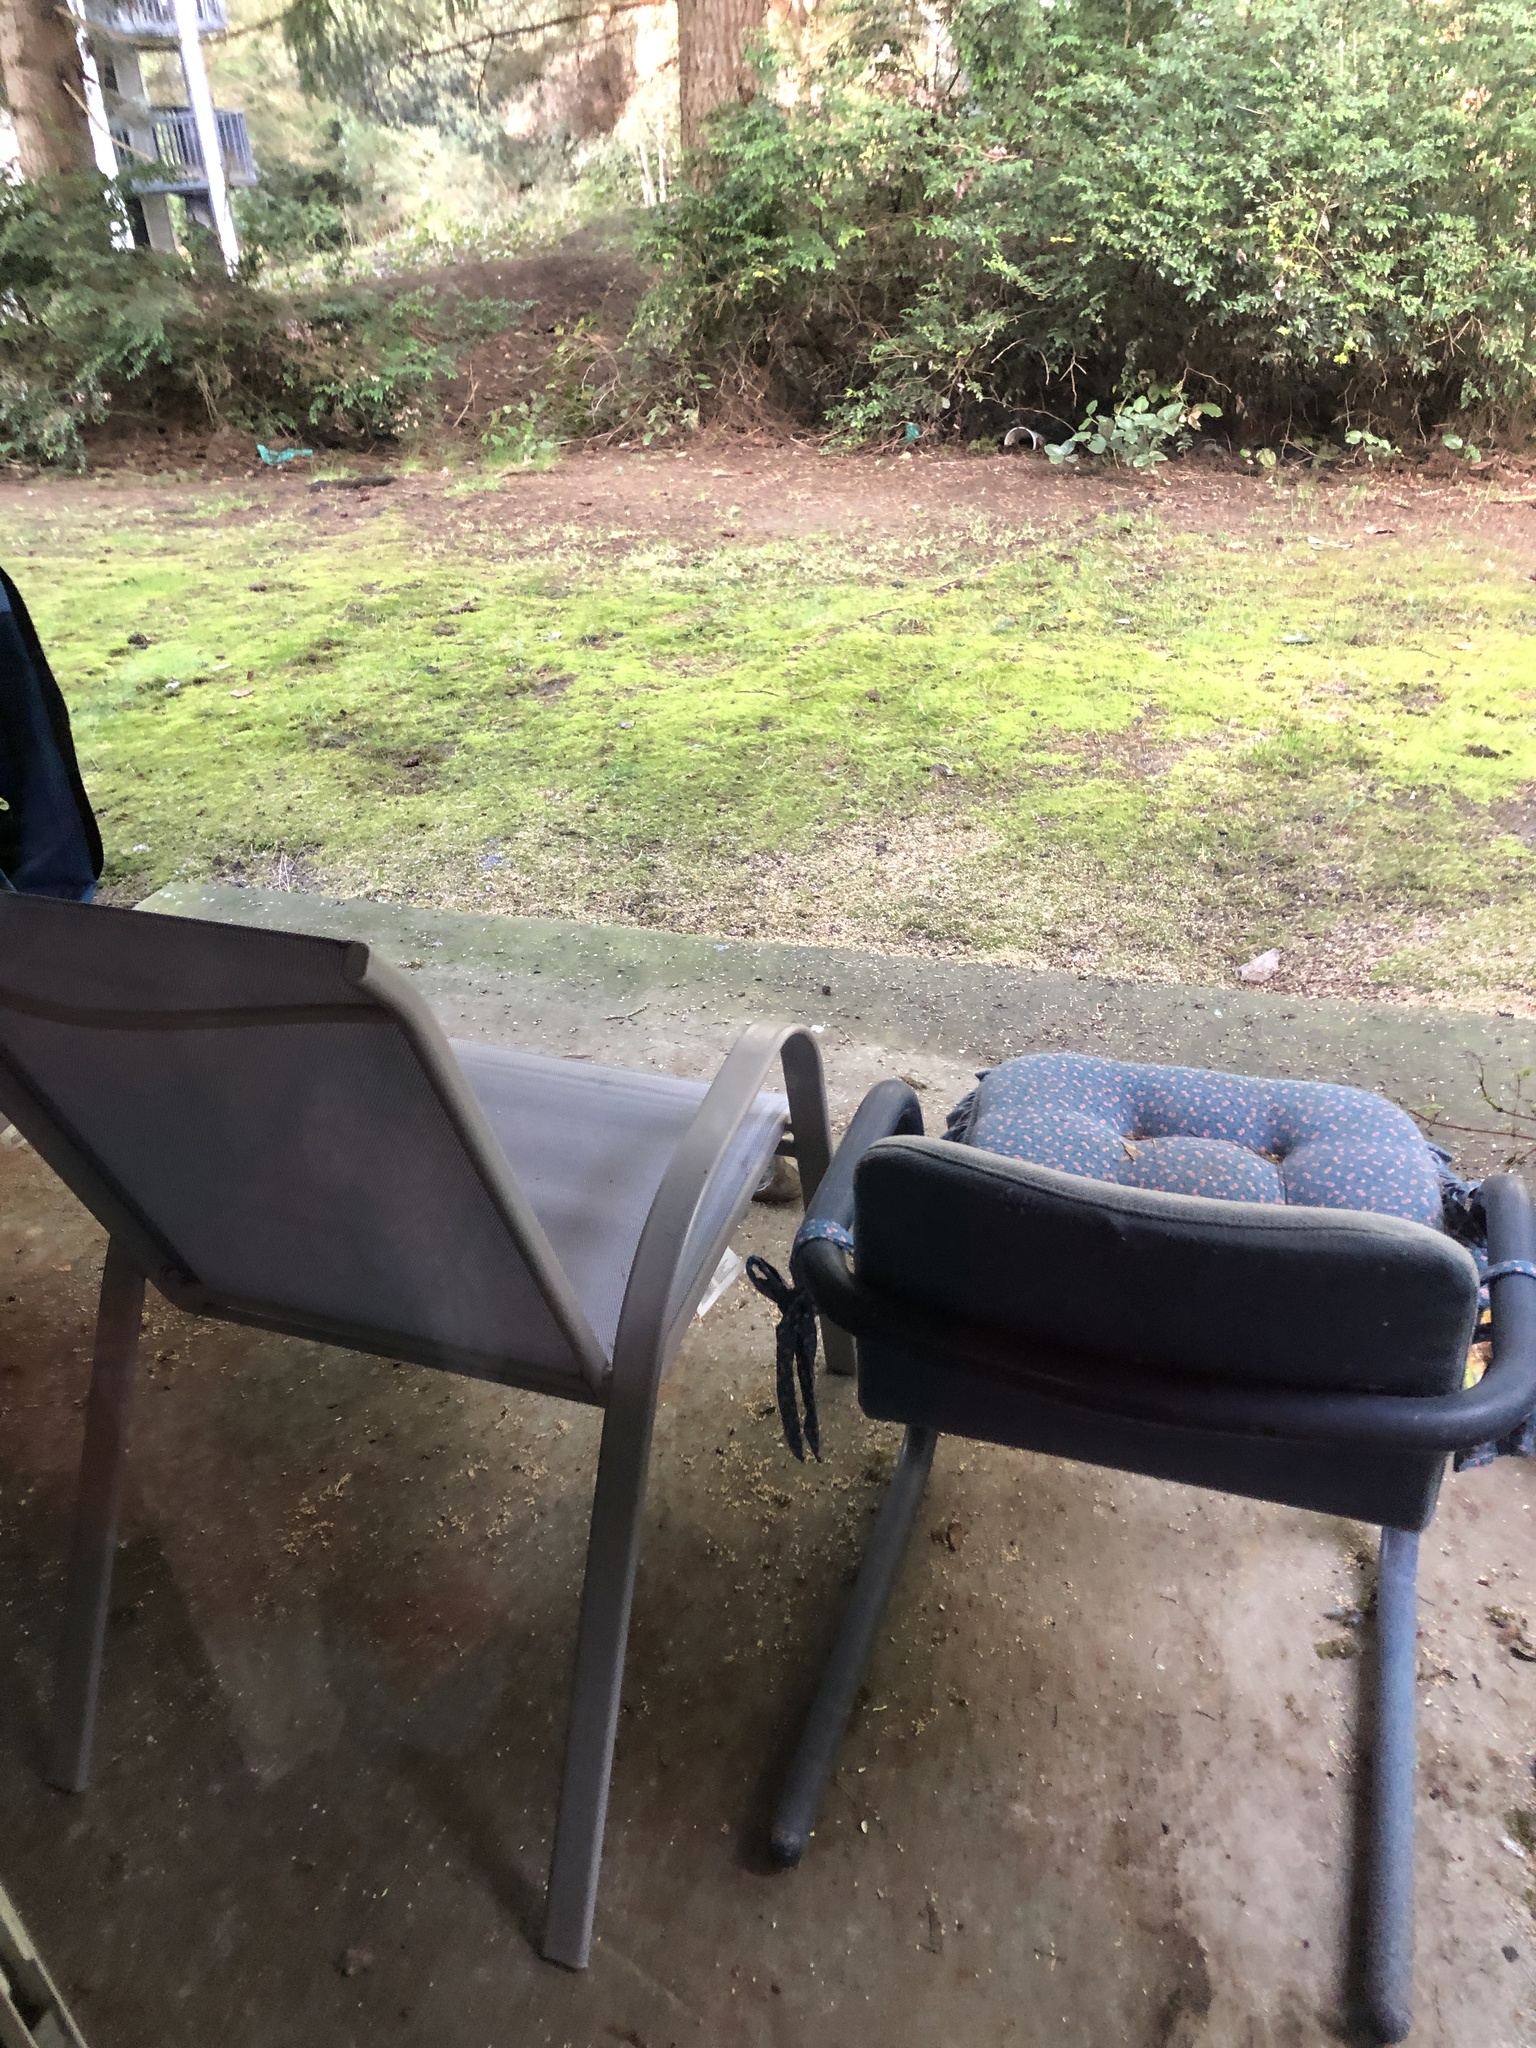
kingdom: Animalia
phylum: Chordata
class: Aves
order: Passeriformes
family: Passerellidae
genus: Pipilo
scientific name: Pipilo maculatus
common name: Spotted towhee
